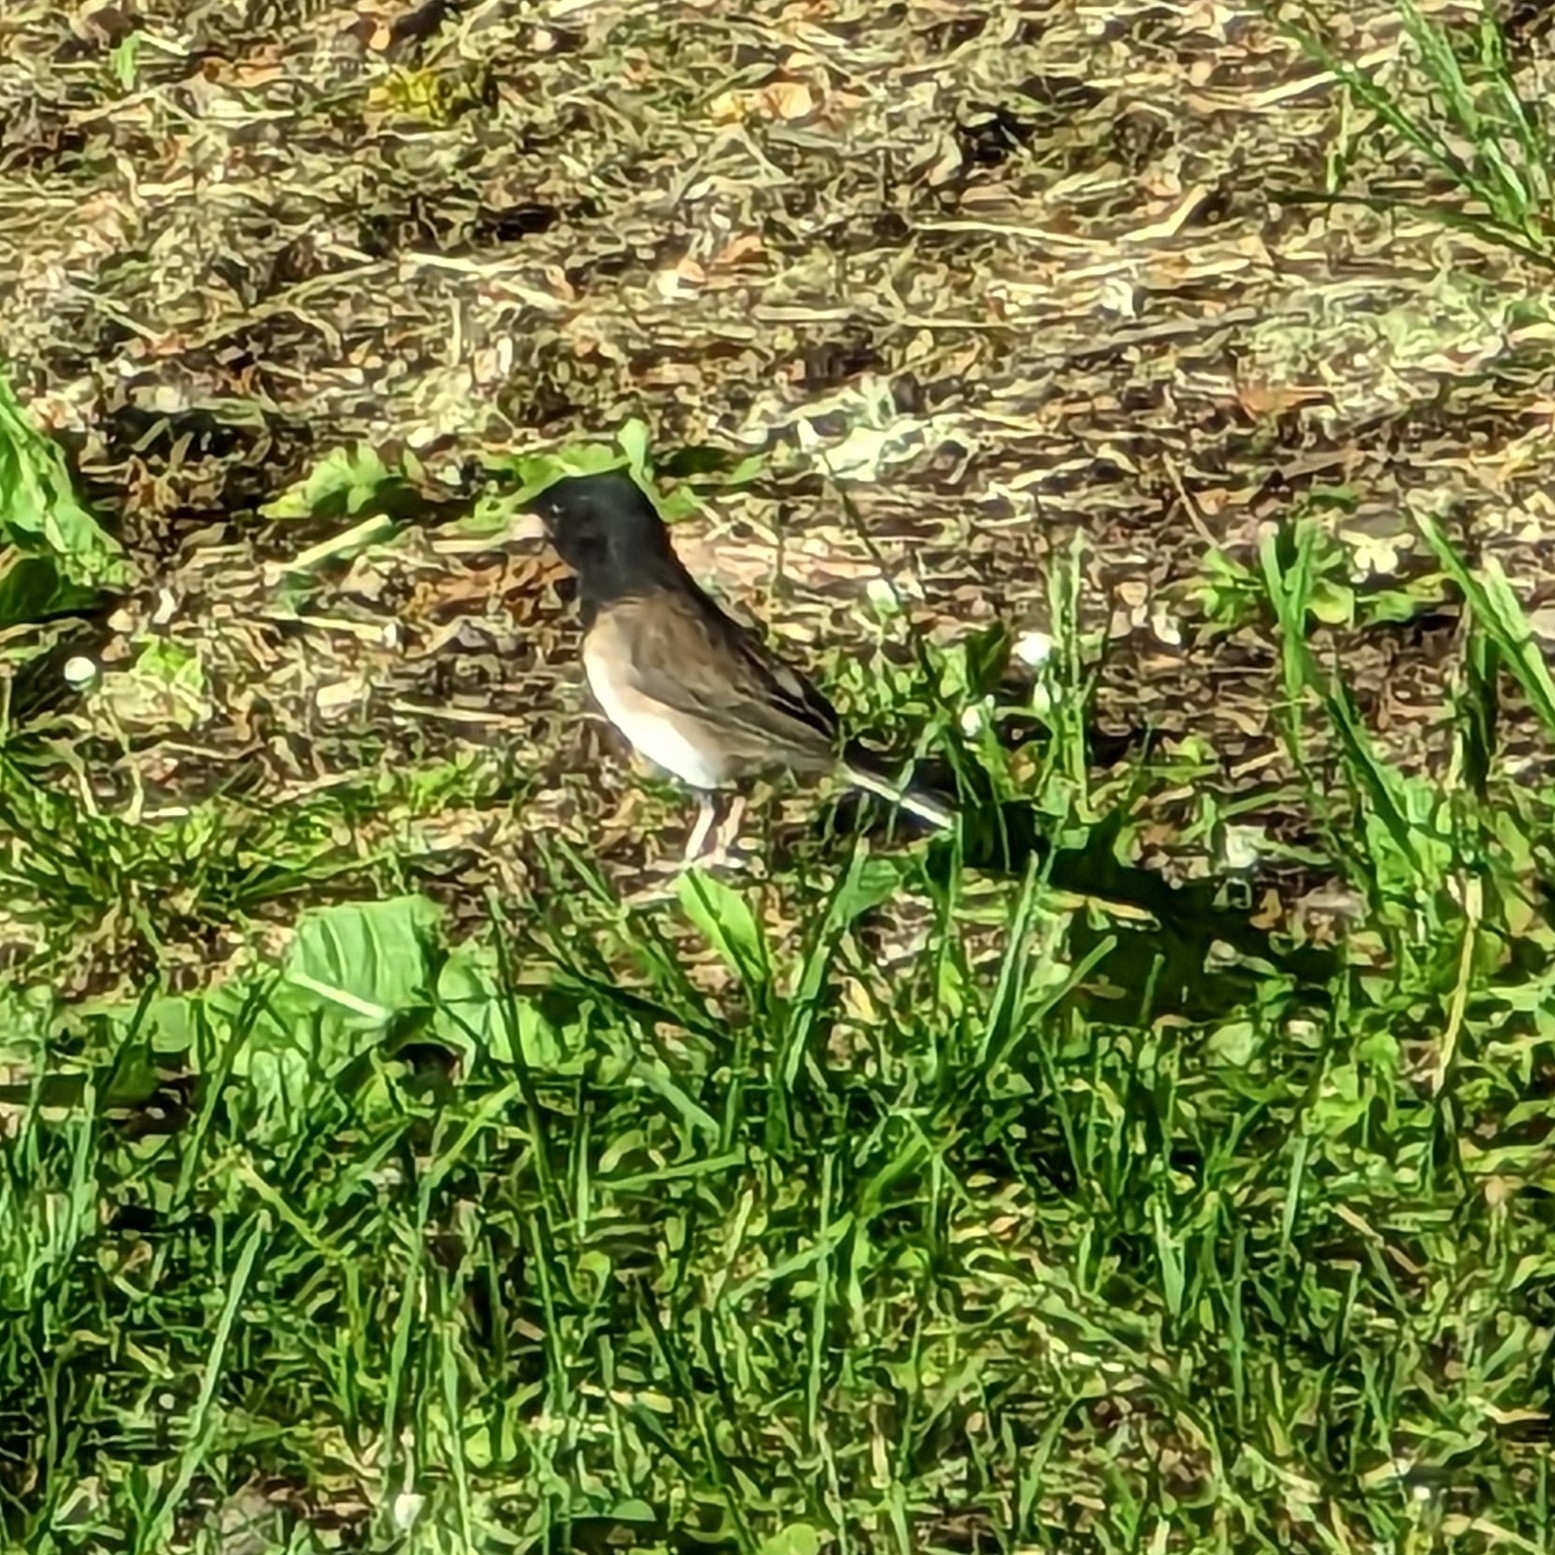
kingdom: Animalia
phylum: Chordata
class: Aves
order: Passeriformes
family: Passerellidae
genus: Junco
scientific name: Junco hyemalis
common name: Dark-eyed junco
